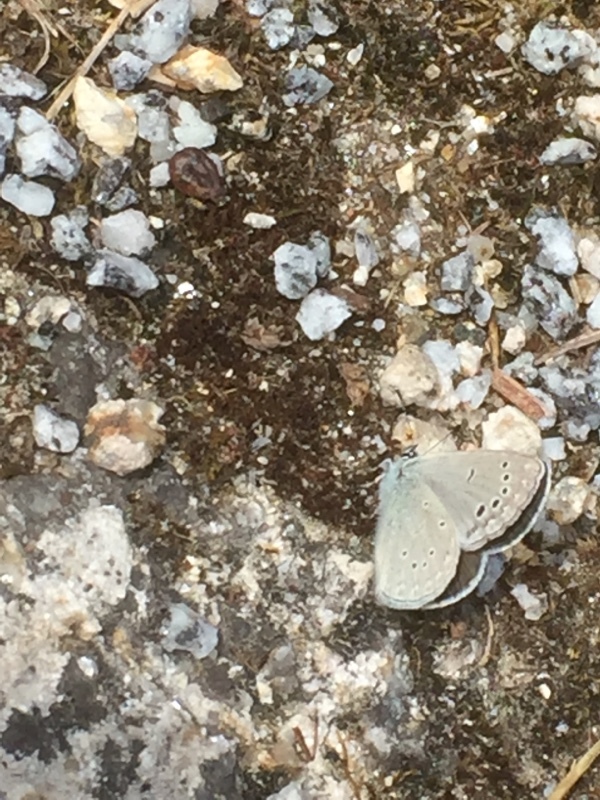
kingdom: Animalia
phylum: Arthropoda
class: Insecta
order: Lepidoptera
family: Lycaenidae
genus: Glaucopsyche
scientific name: Glaucopsyche melanops
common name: Black-eyed blue
